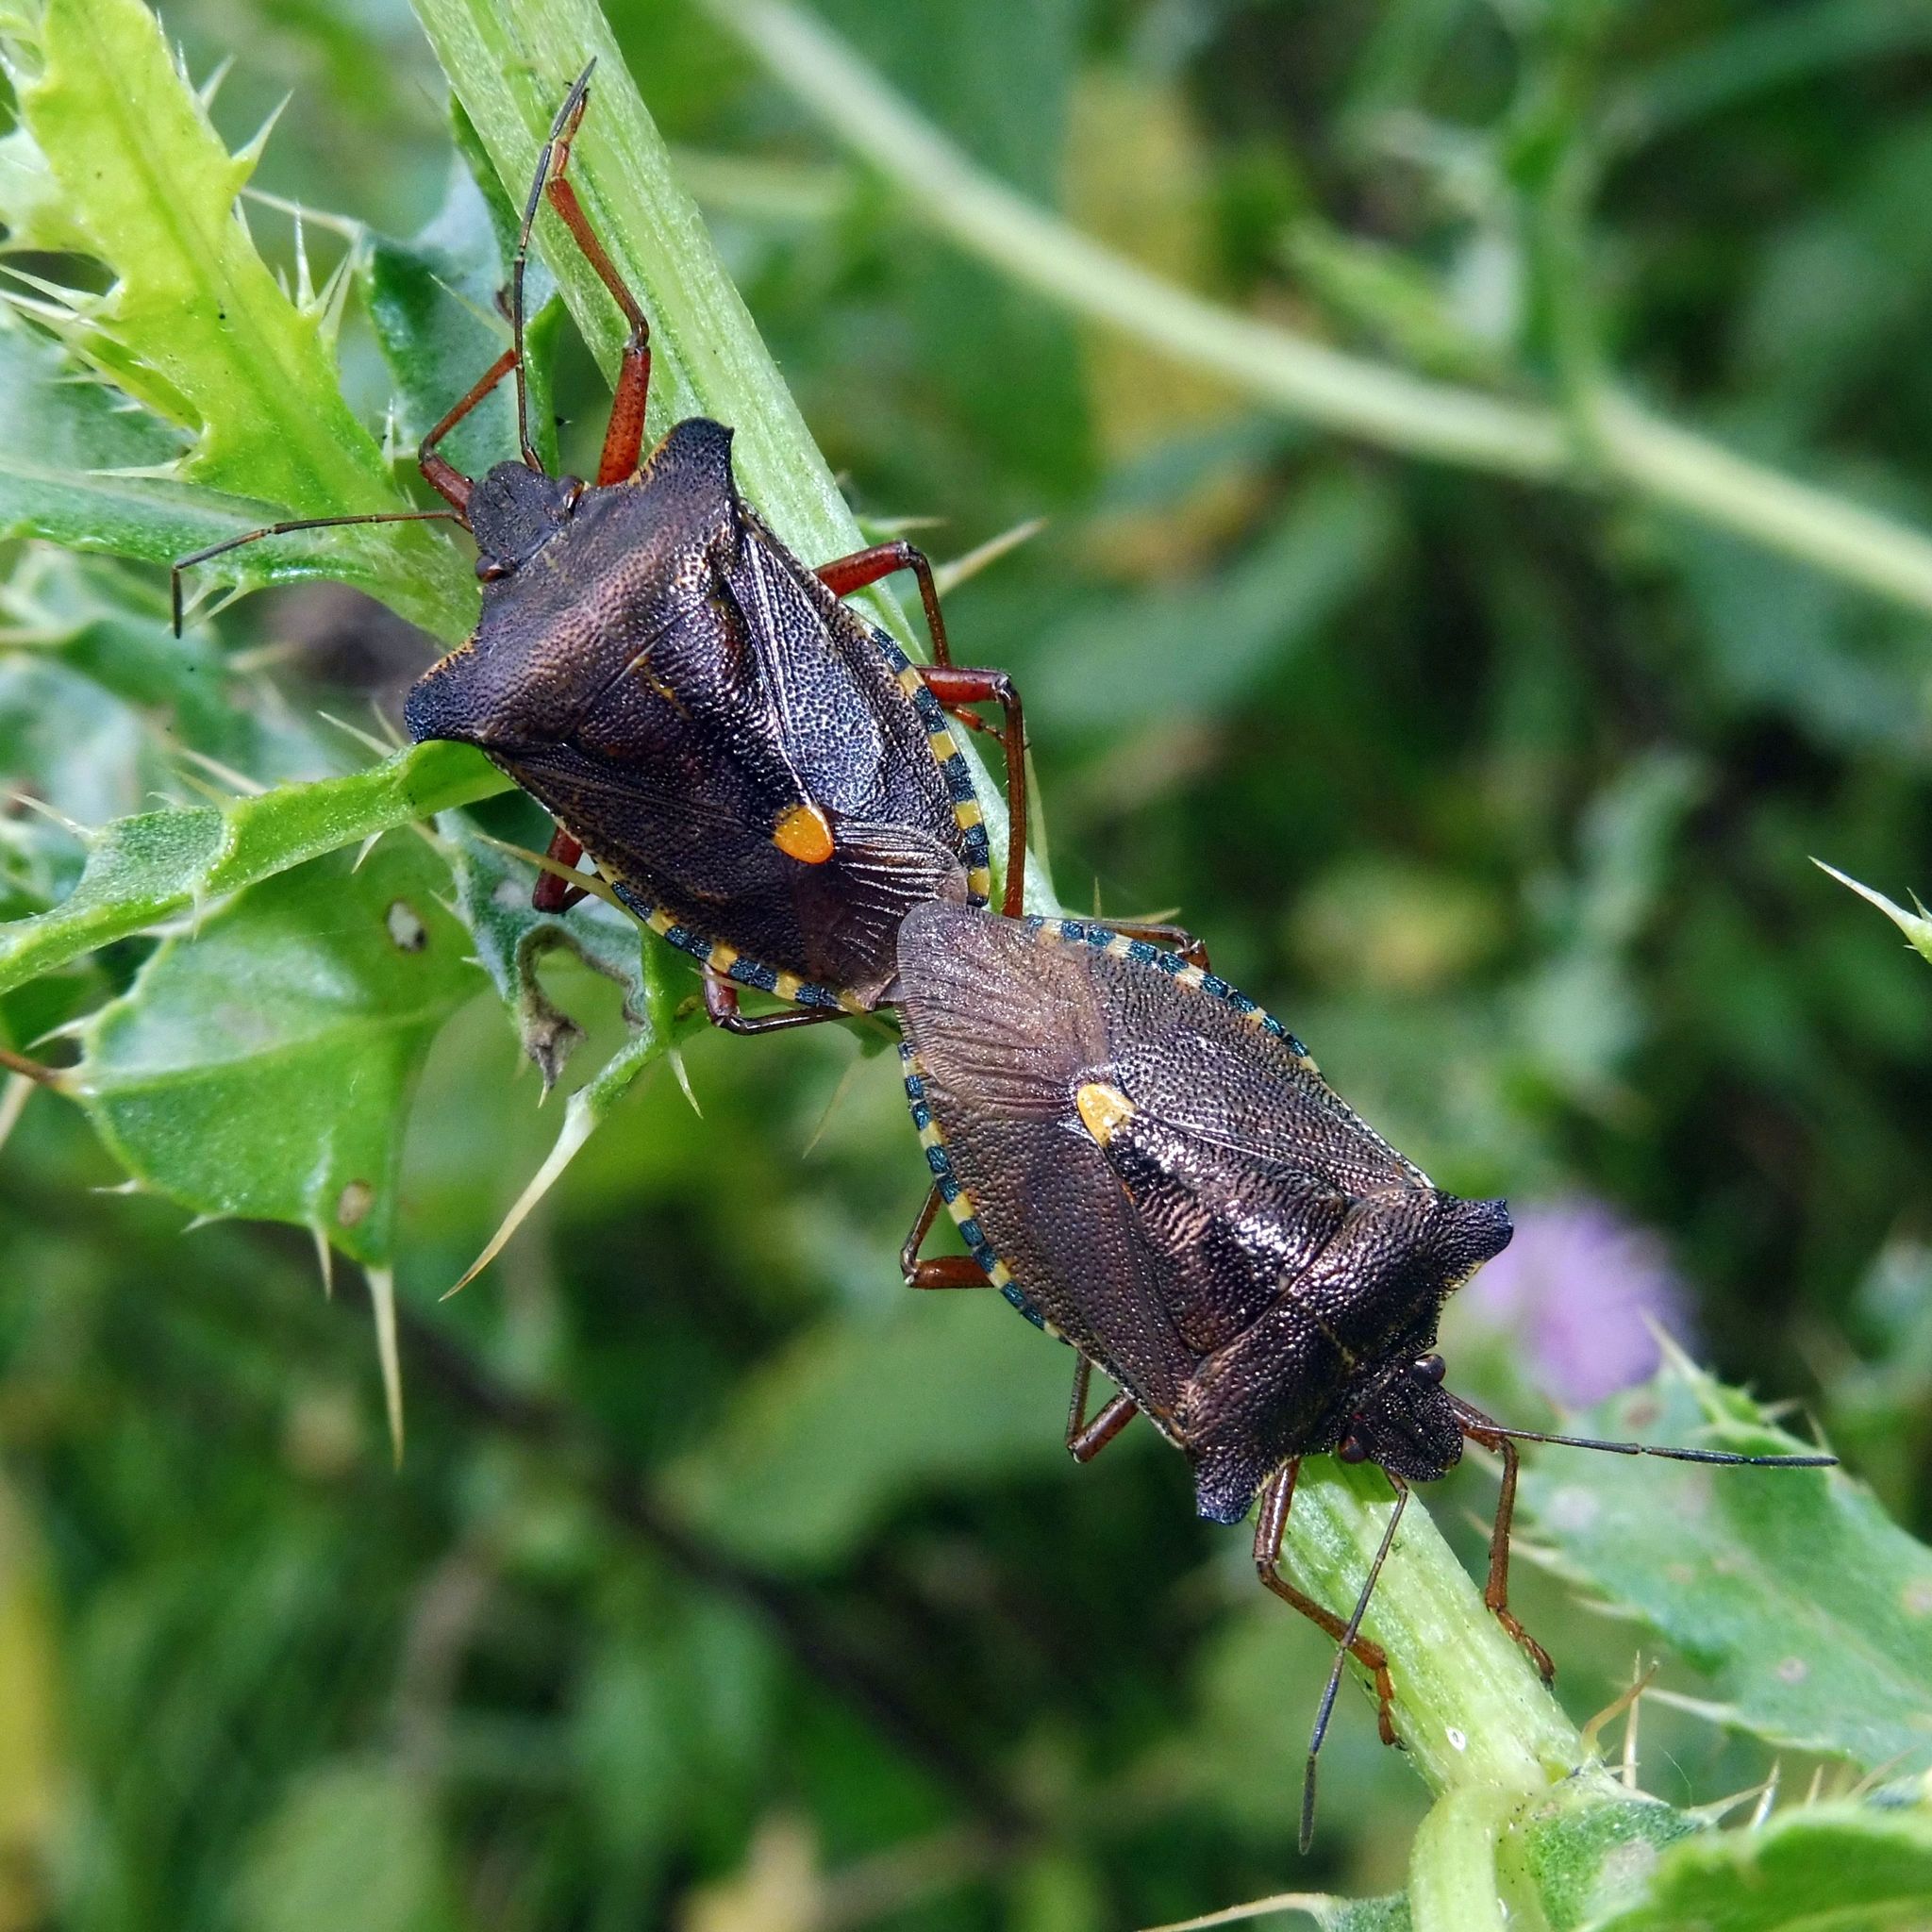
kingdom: Animalia
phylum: Arthropoda
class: Insecta
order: Hemiptera
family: Pentatomidae
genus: Pentatoma
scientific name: Pentatoma rufipes
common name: Forest bug
